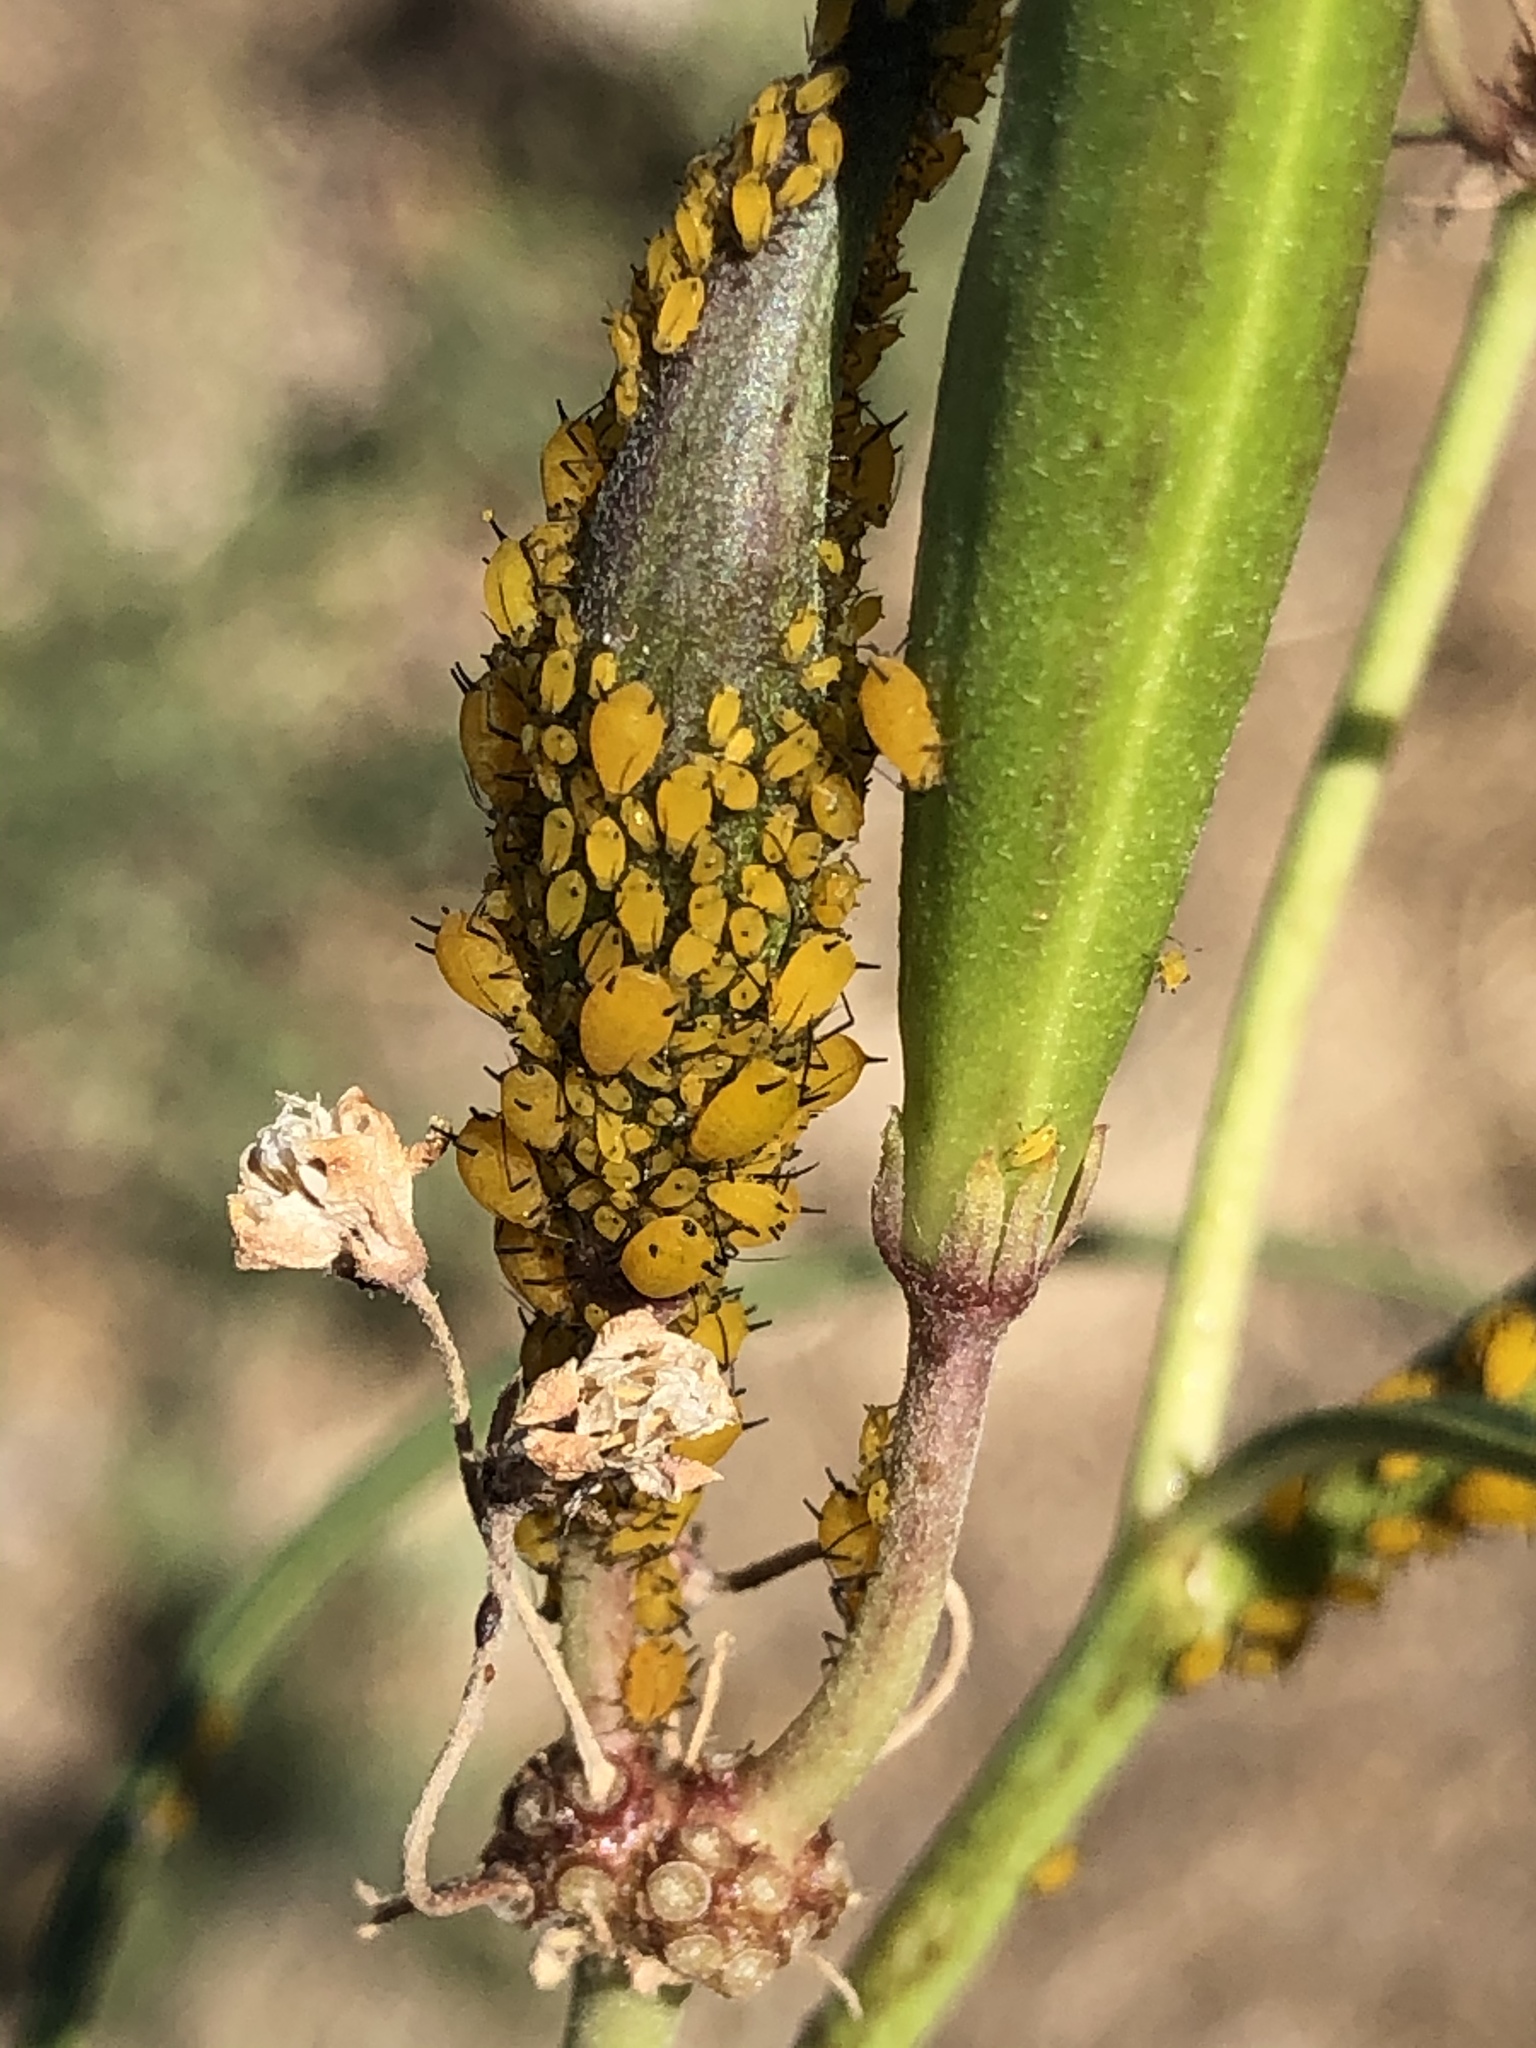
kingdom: Animalia
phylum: Arthropoda
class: Insecta
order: Hemiptera
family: Aphididae
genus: Aphis
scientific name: Aphis nerii
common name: Oleander aphid
